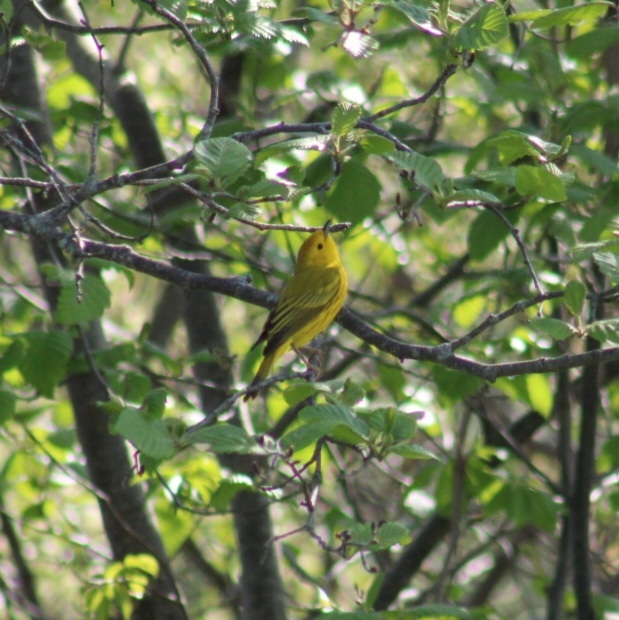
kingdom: Animalia
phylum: Chordata
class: Aves
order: Passeriformes
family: Parulidae
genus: Setophaga
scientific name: Setophaga petechia
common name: Yellow warbler
